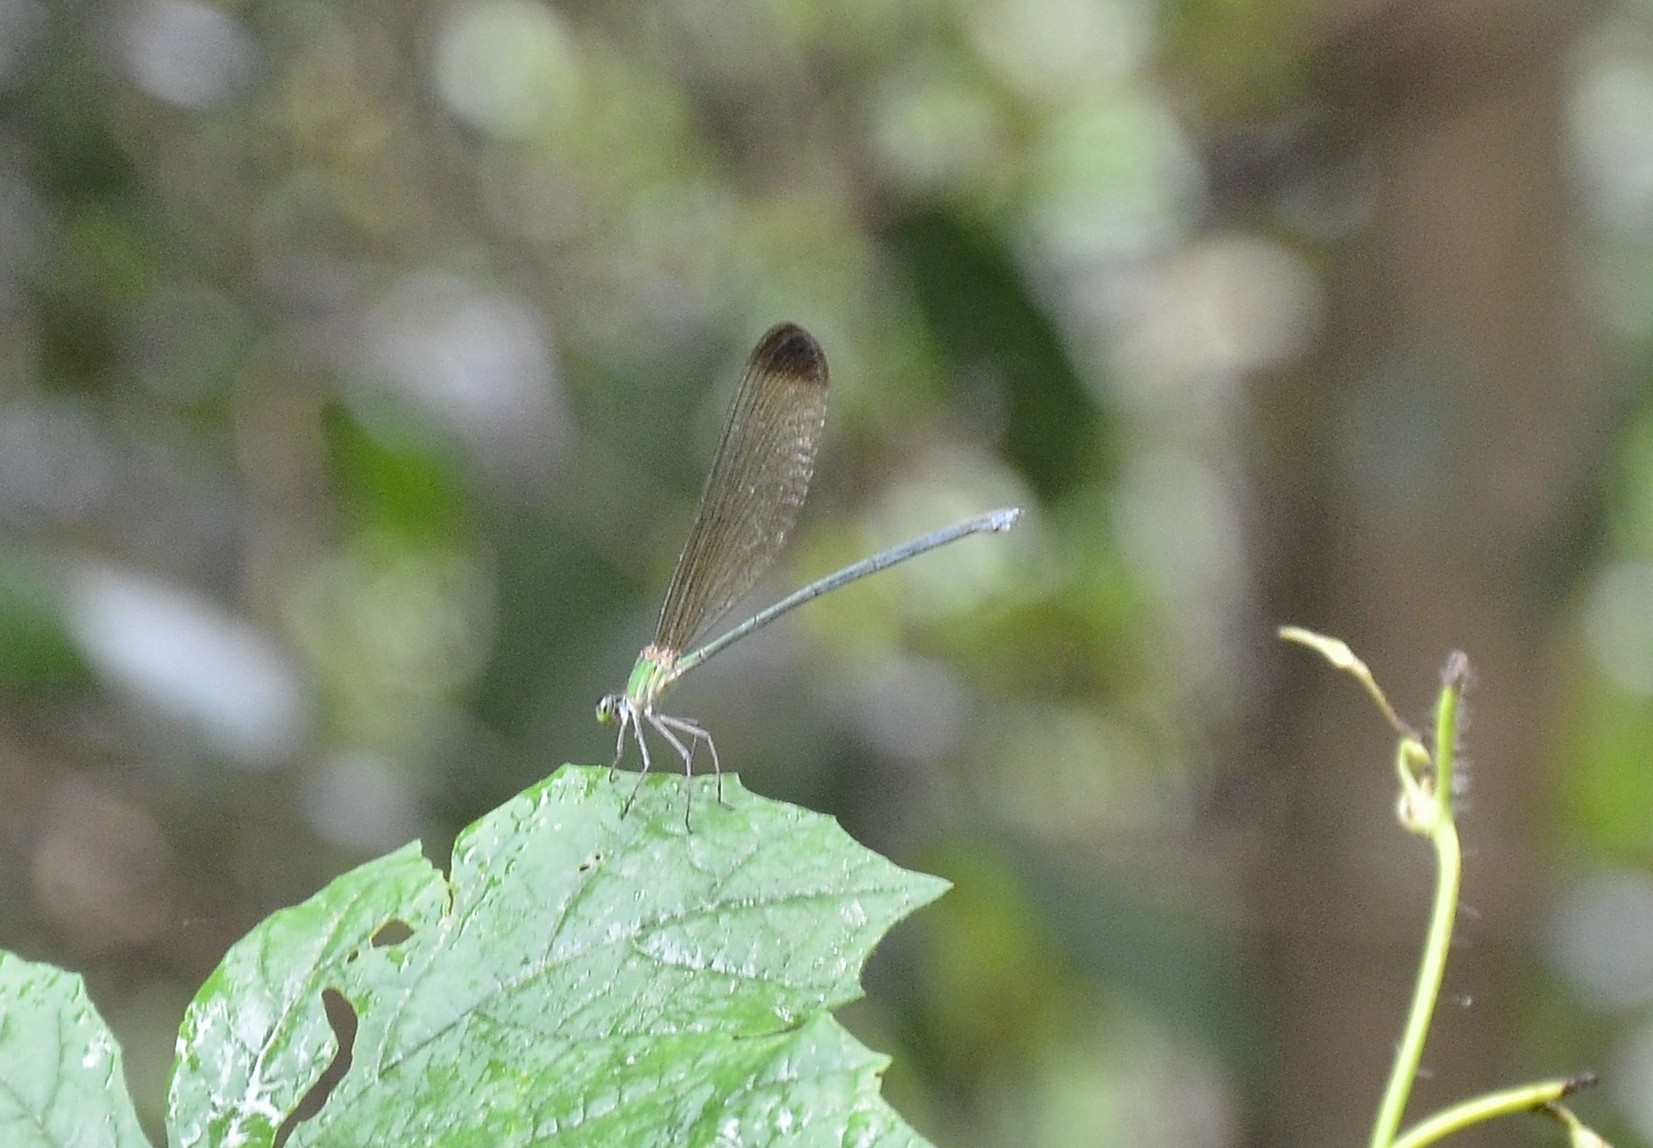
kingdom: Animalia
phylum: Arthropoda
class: Insecta
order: Odonata
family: Calopterygidae
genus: Vestalis
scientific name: Vestalis apicalis
